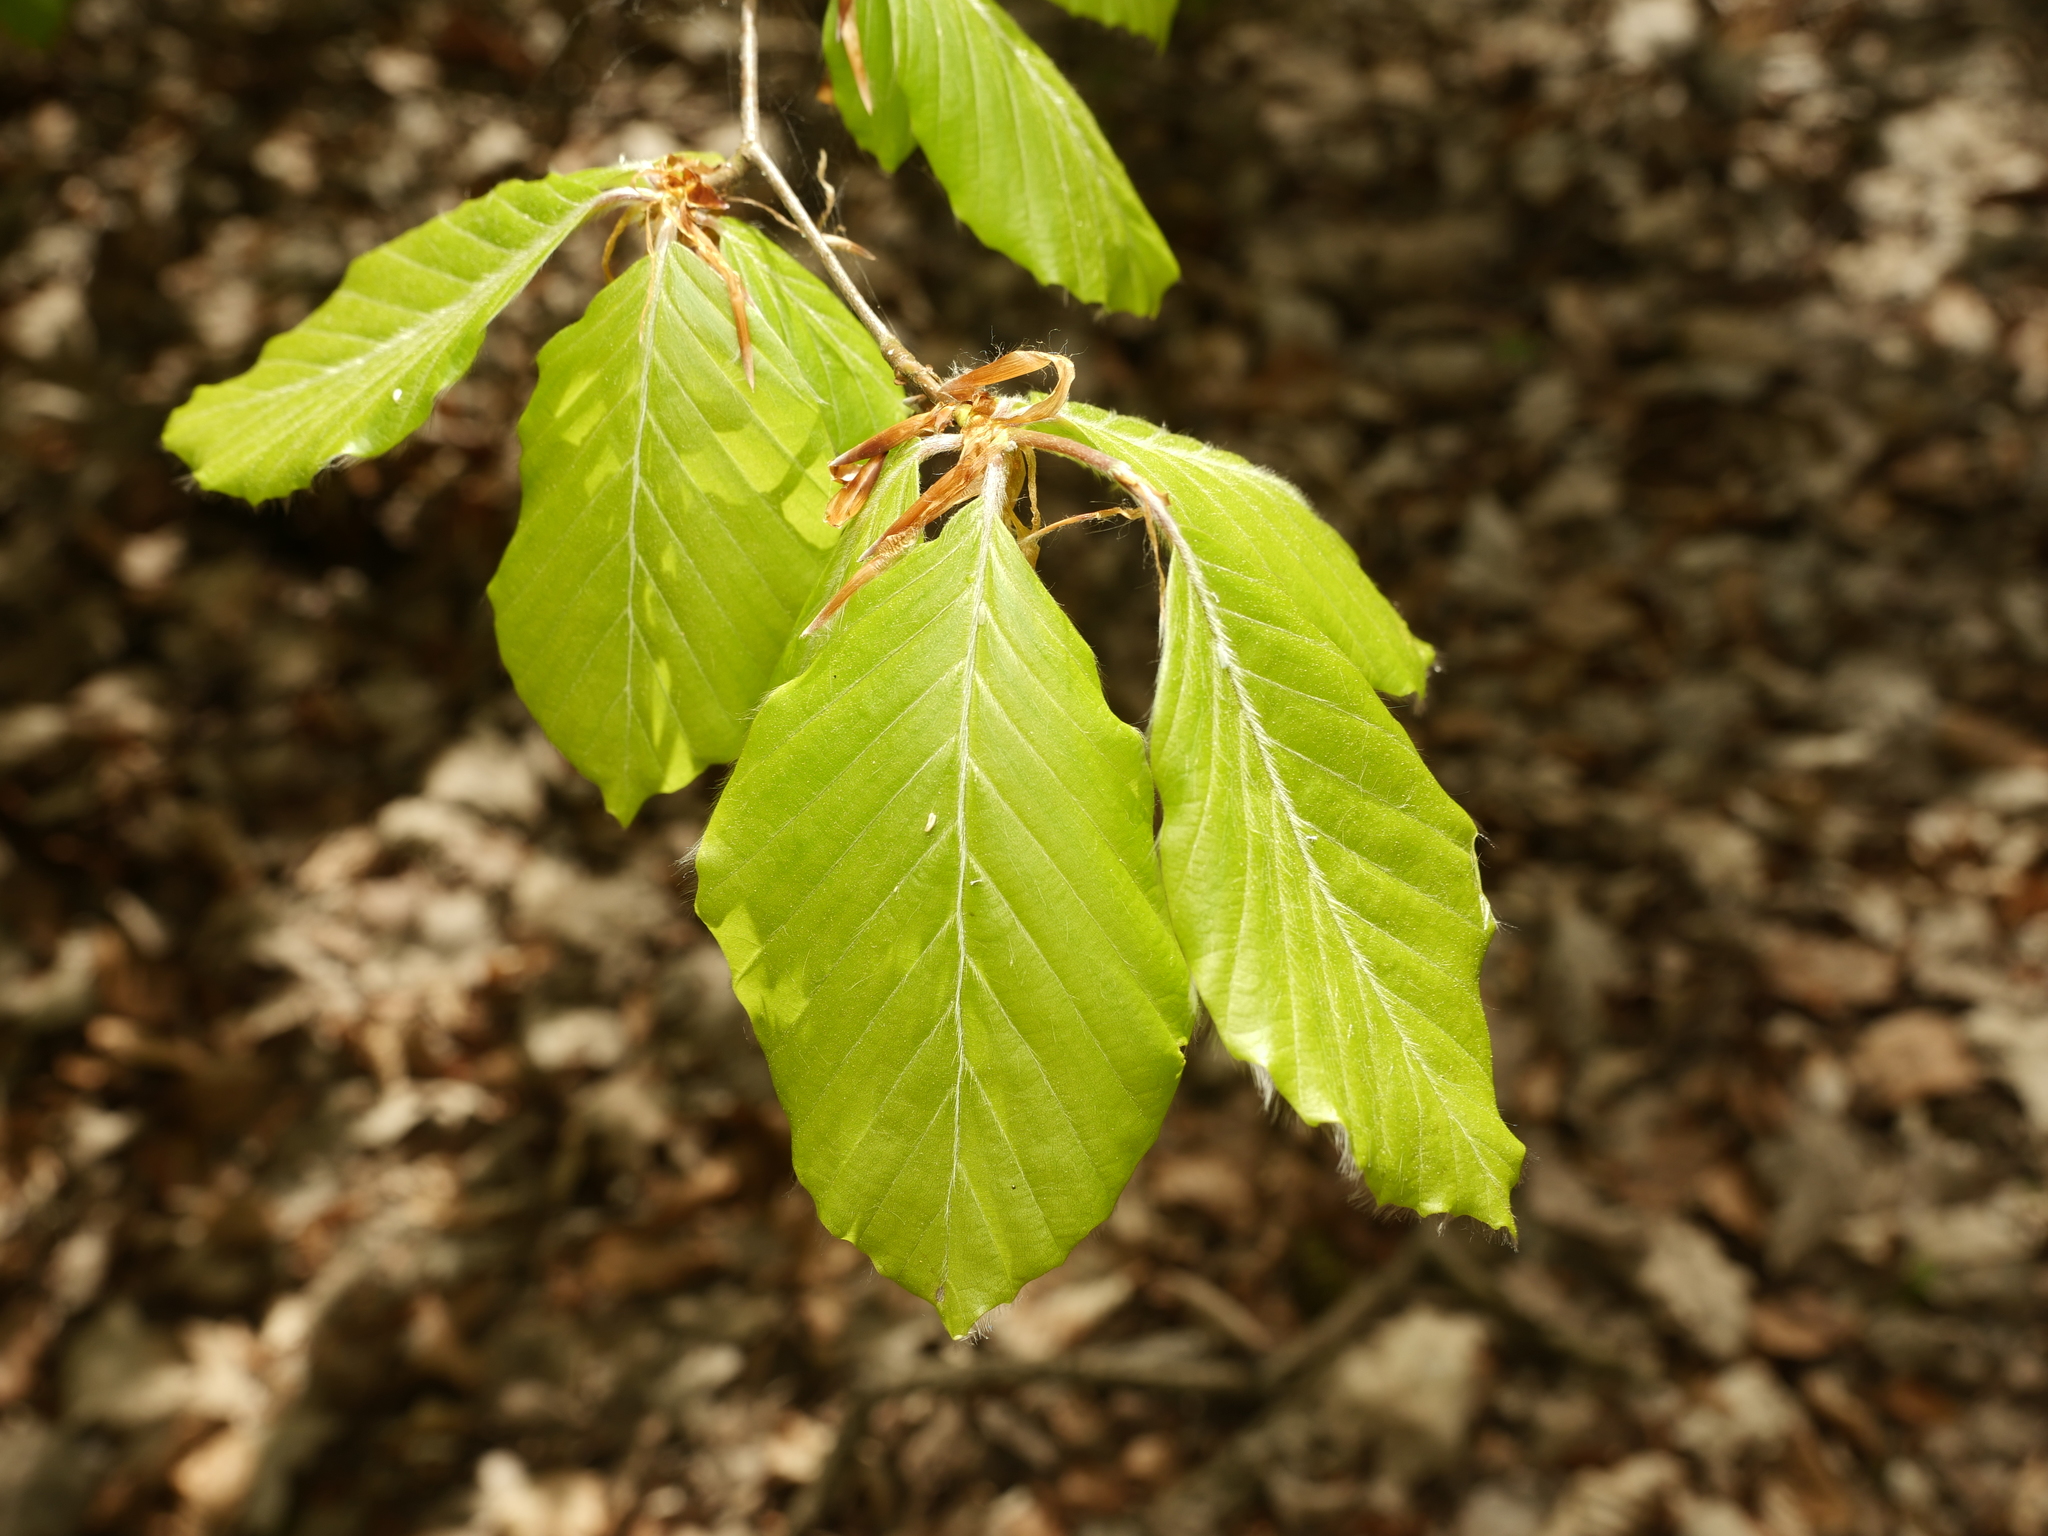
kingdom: Plantae
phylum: Tracheophyta
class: Magnoliopsida
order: Fagales
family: Fagaceae
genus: Fagus
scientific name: Fagus sylvatica
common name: Beech
